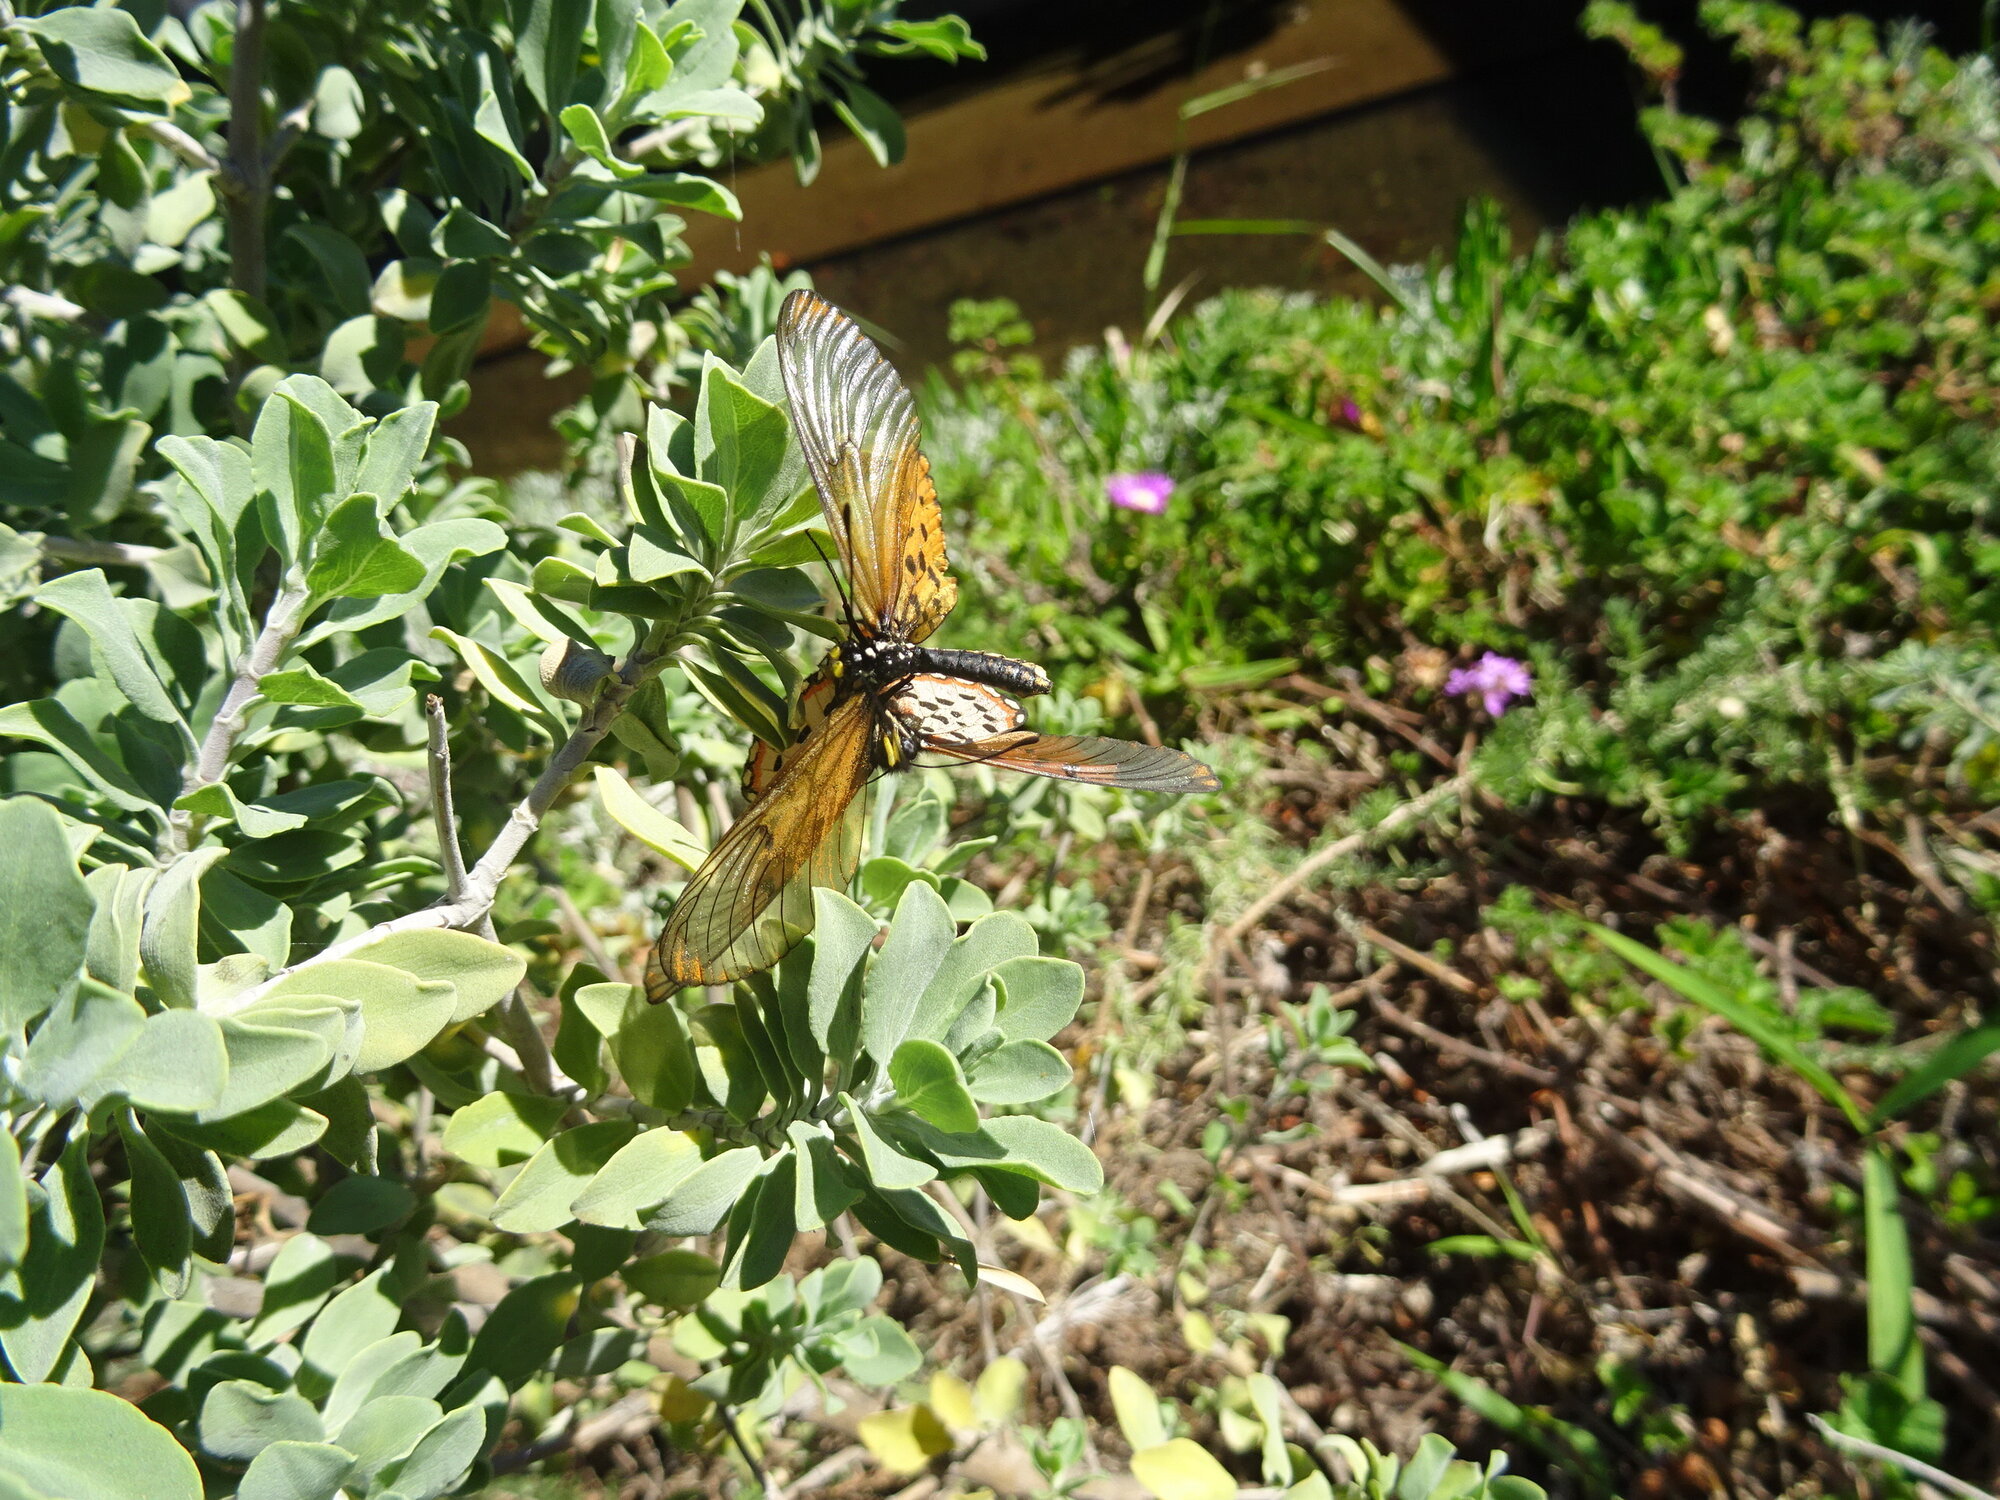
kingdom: Animalia
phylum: Arthropoda
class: Insecta
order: Lepidoptera
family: Nymphalidae
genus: Acraea
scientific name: Acraea horta
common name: Garden acraea
